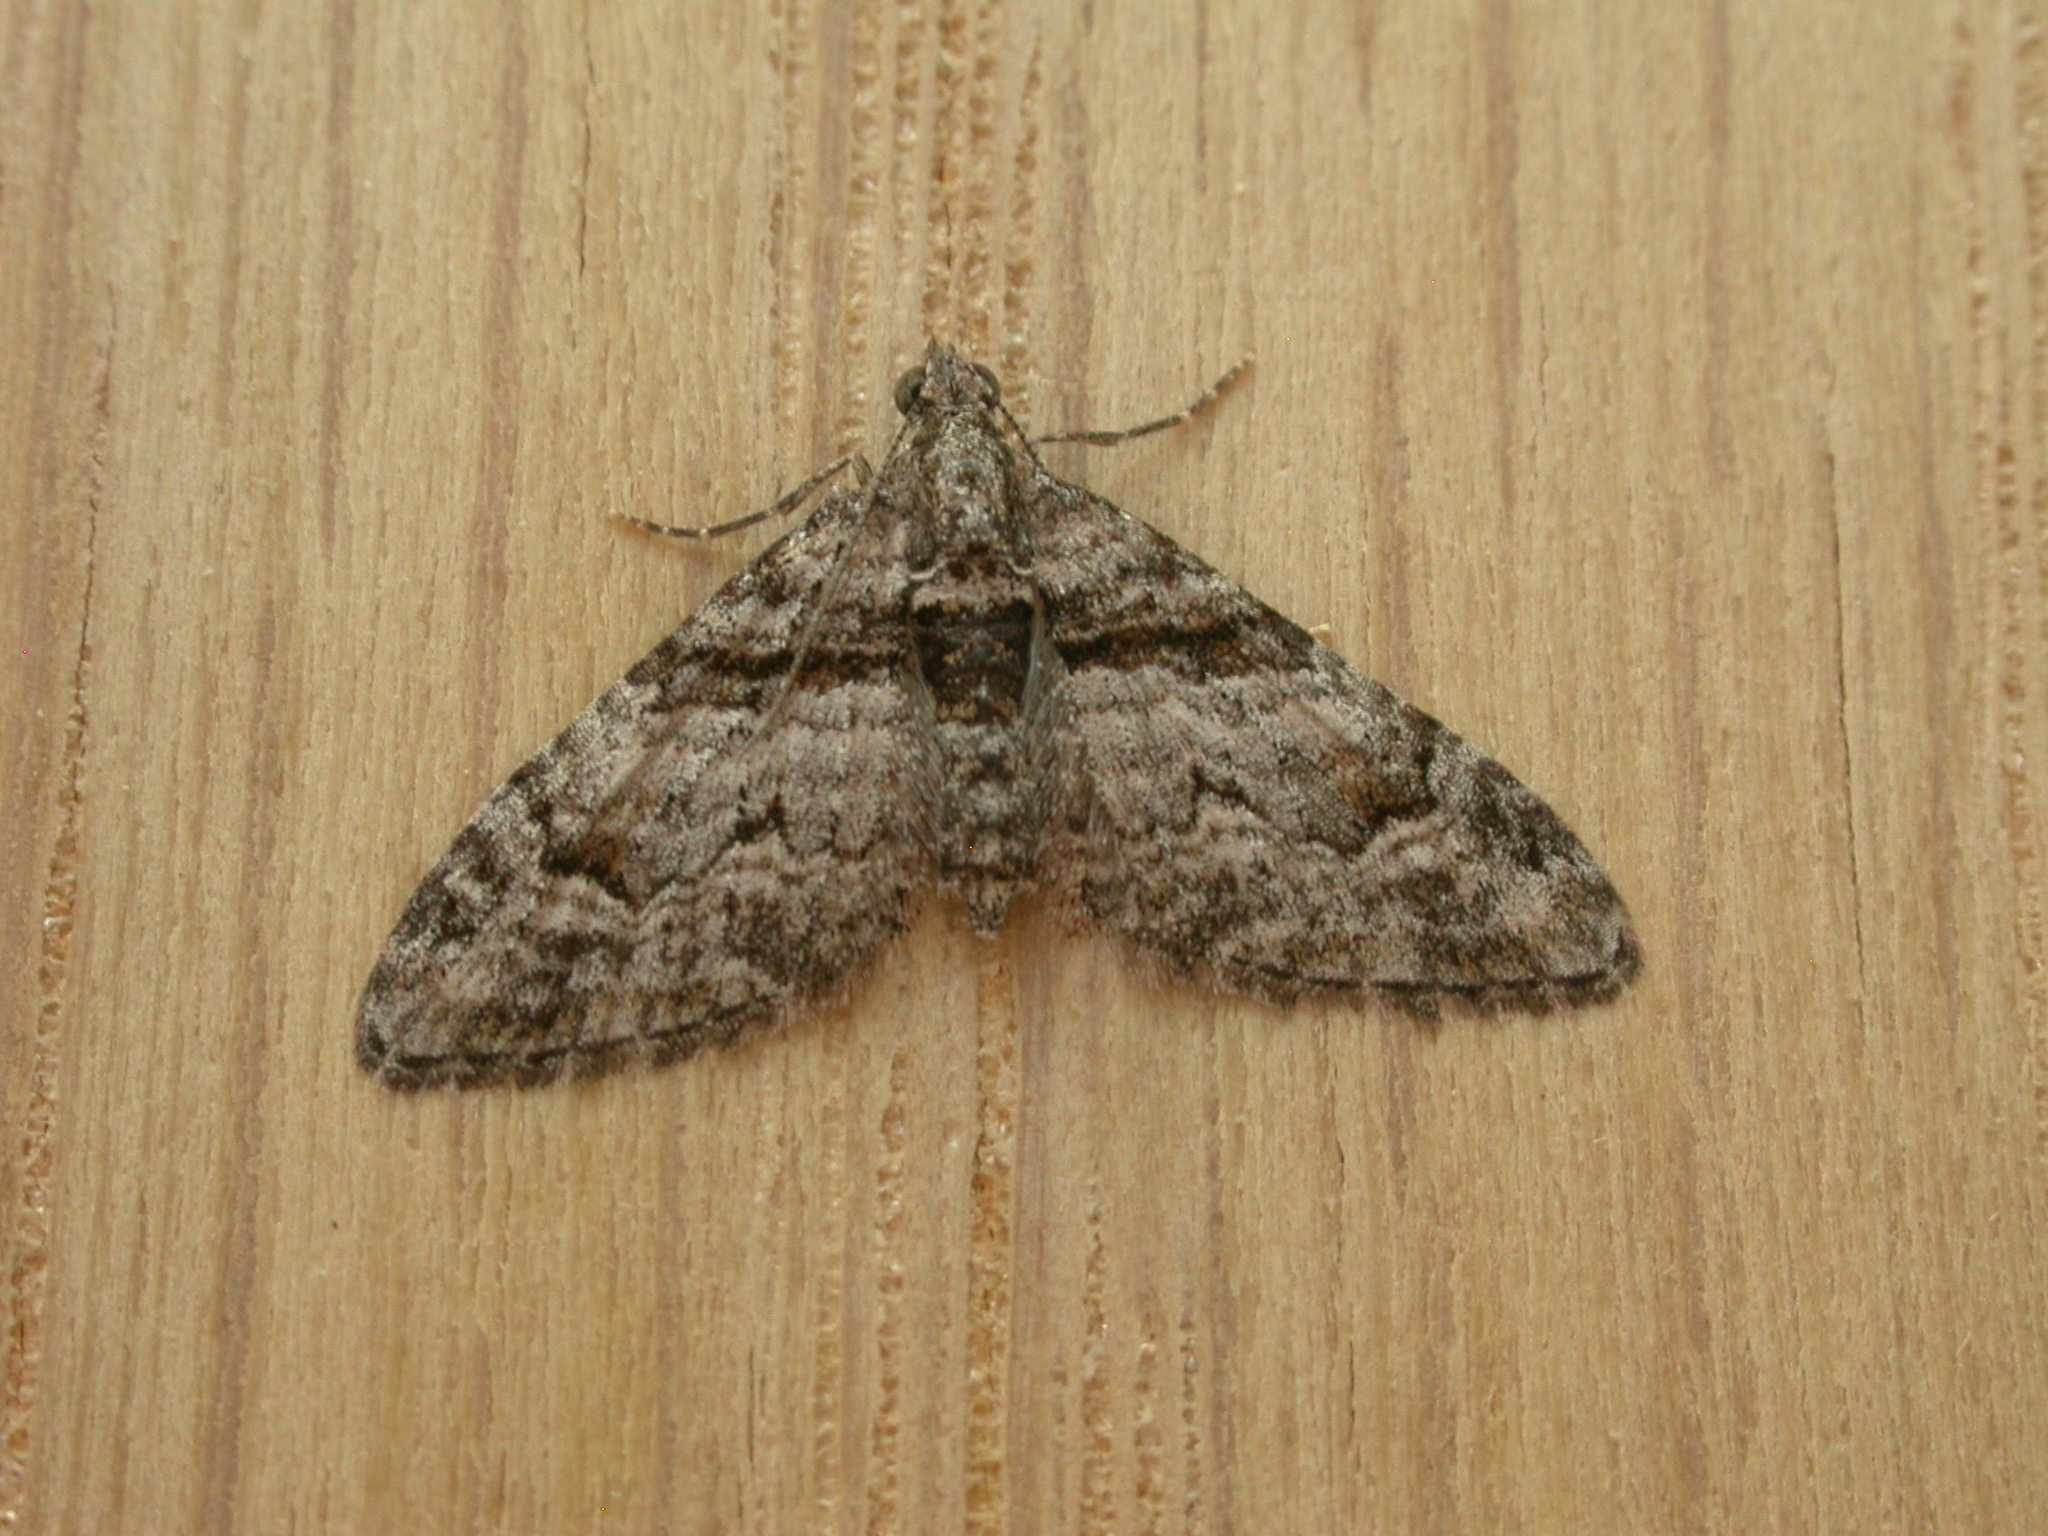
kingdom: Animalia
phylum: Arthropoda
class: Insecta
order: Lepidoptera
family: Geometridae
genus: Phrissogonus
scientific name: Phrissogonus laticostata
